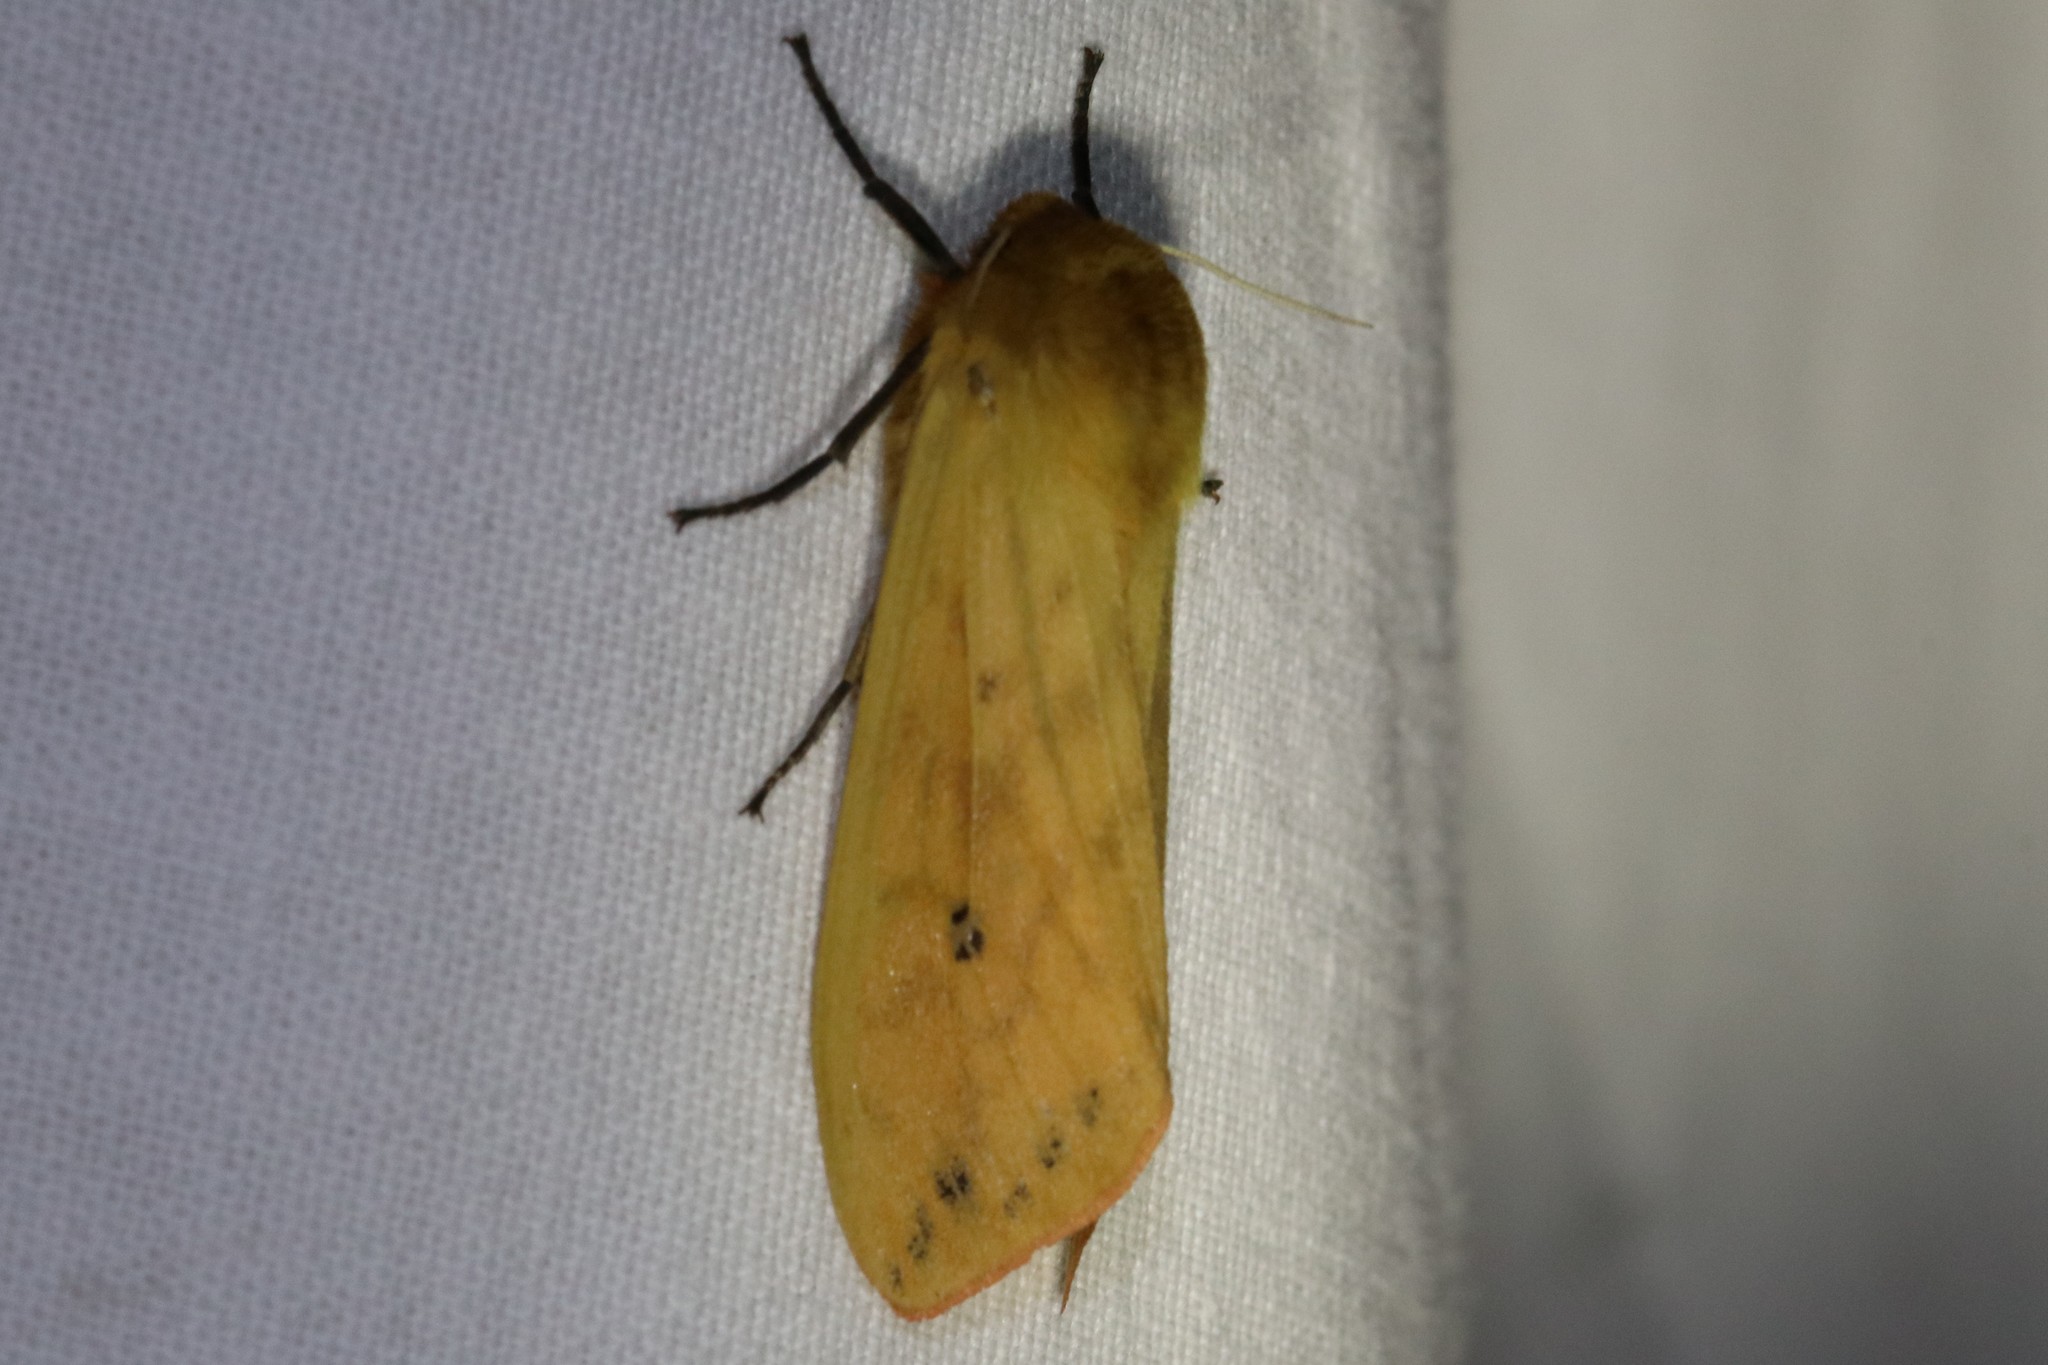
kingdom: Animalia
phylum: Arthropoda
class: Insecta
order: Lepidoptera
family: Erebidae
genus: Pyrrharctia
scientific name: Pyrrharctia isabella
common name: Isabella tiger moth
